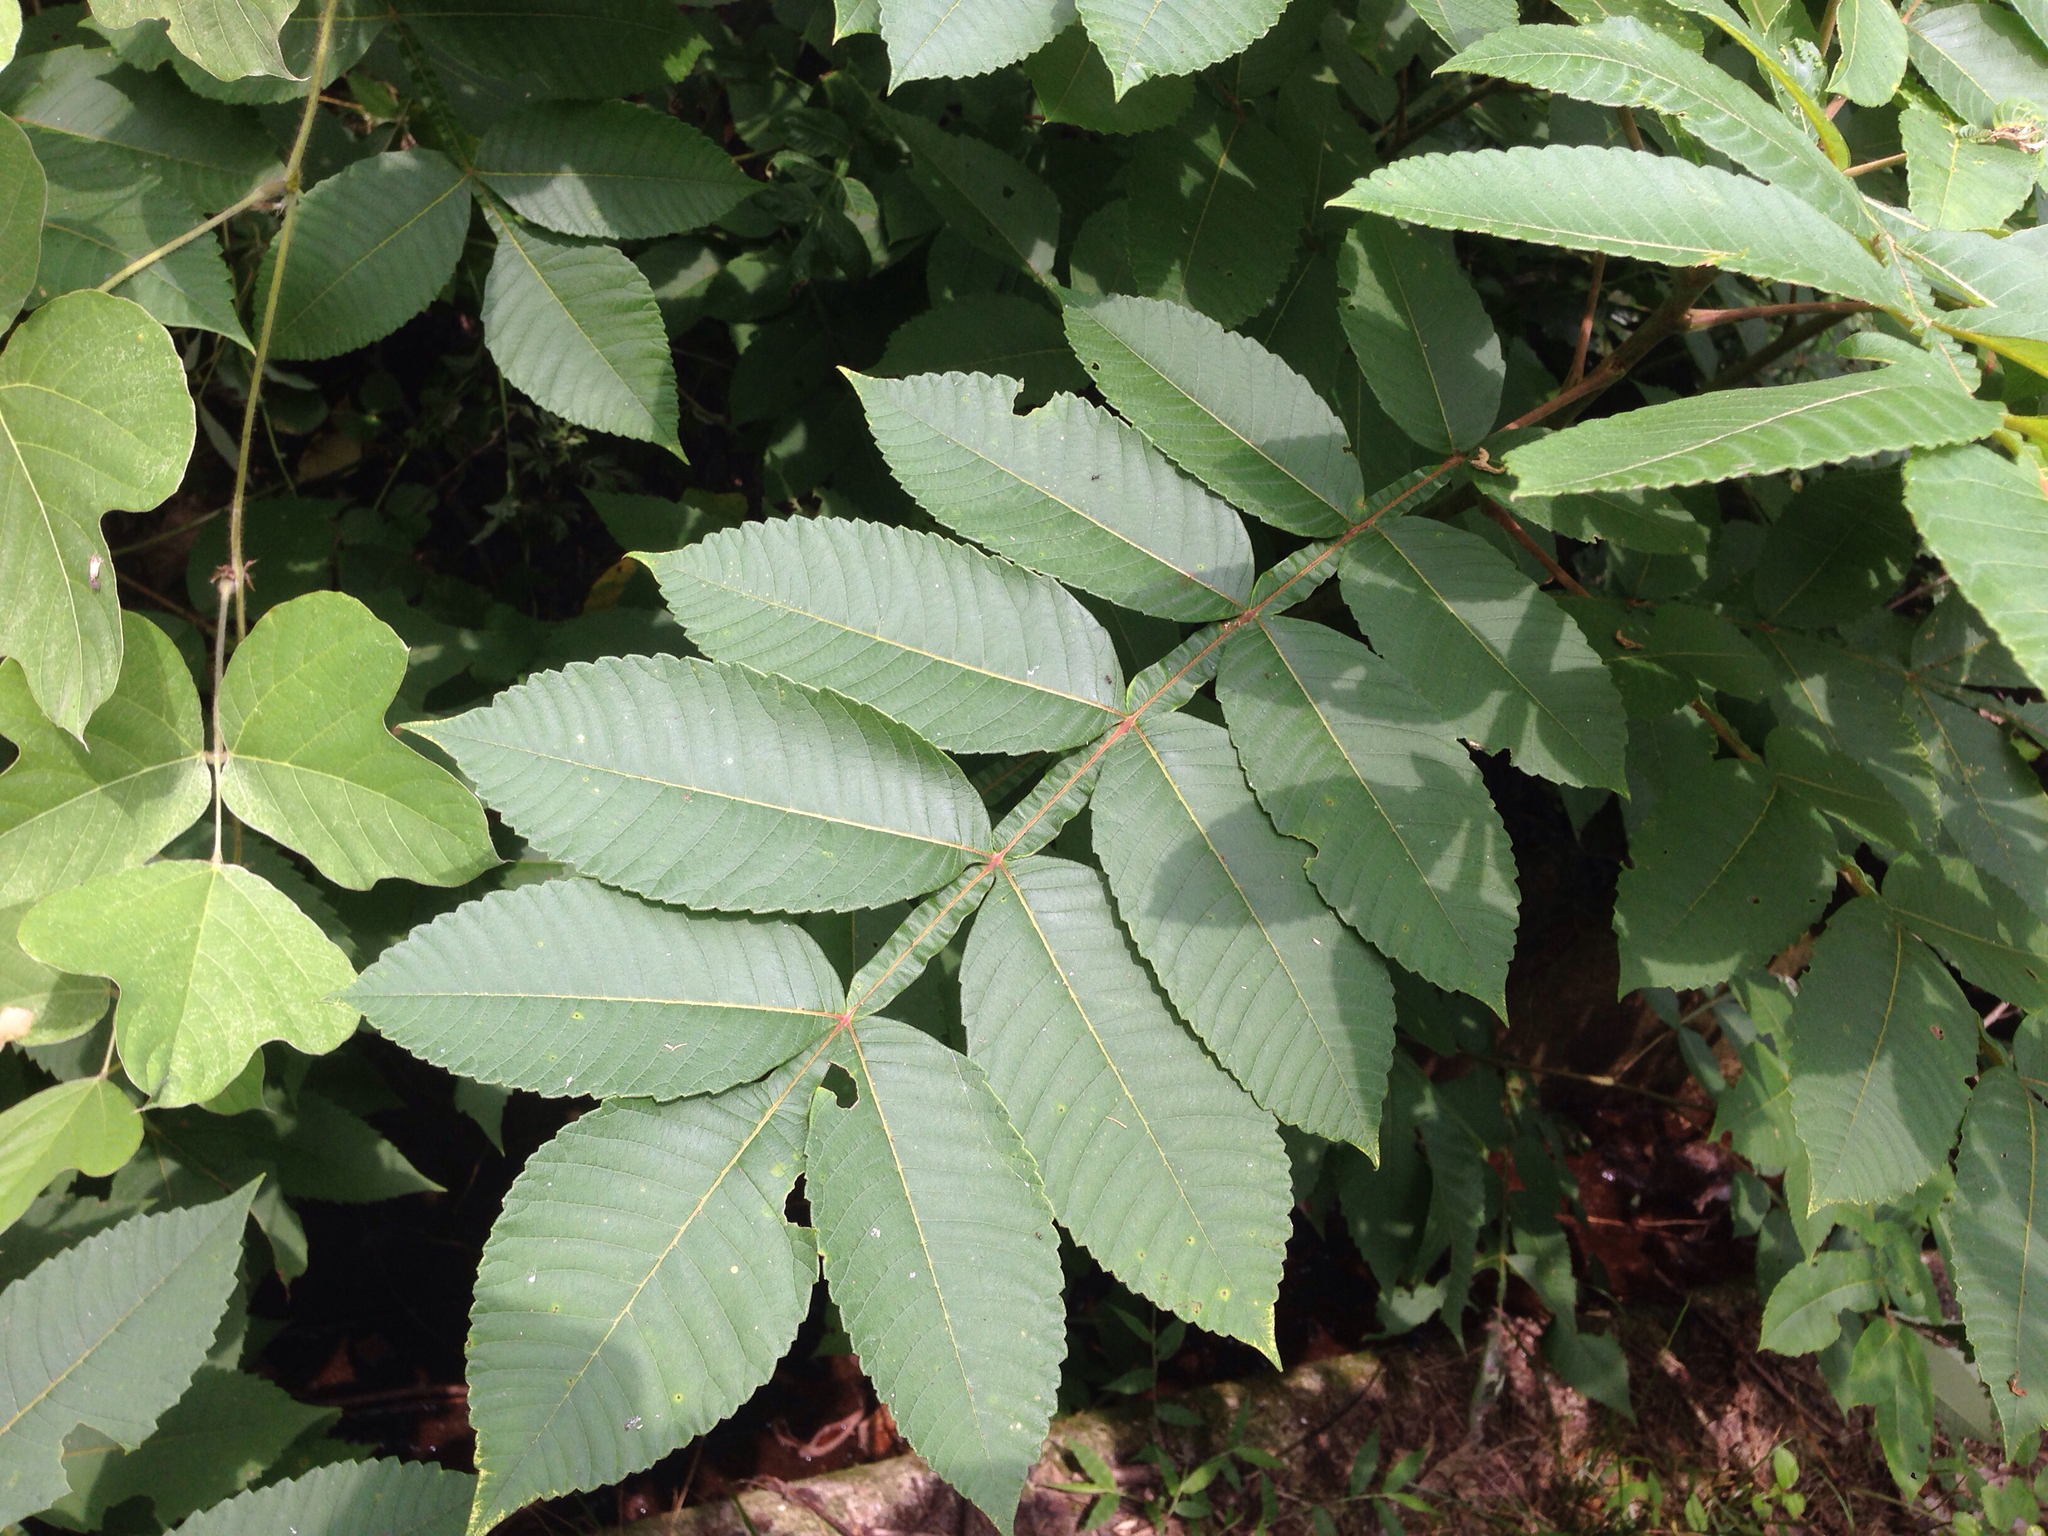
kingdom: Plantae
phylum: Tracheophyta
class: Magnoliopsida
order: Sapindales
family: Anacardiaceae
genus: Rhus
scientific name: Rhus chinensis
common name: Chinese gall
